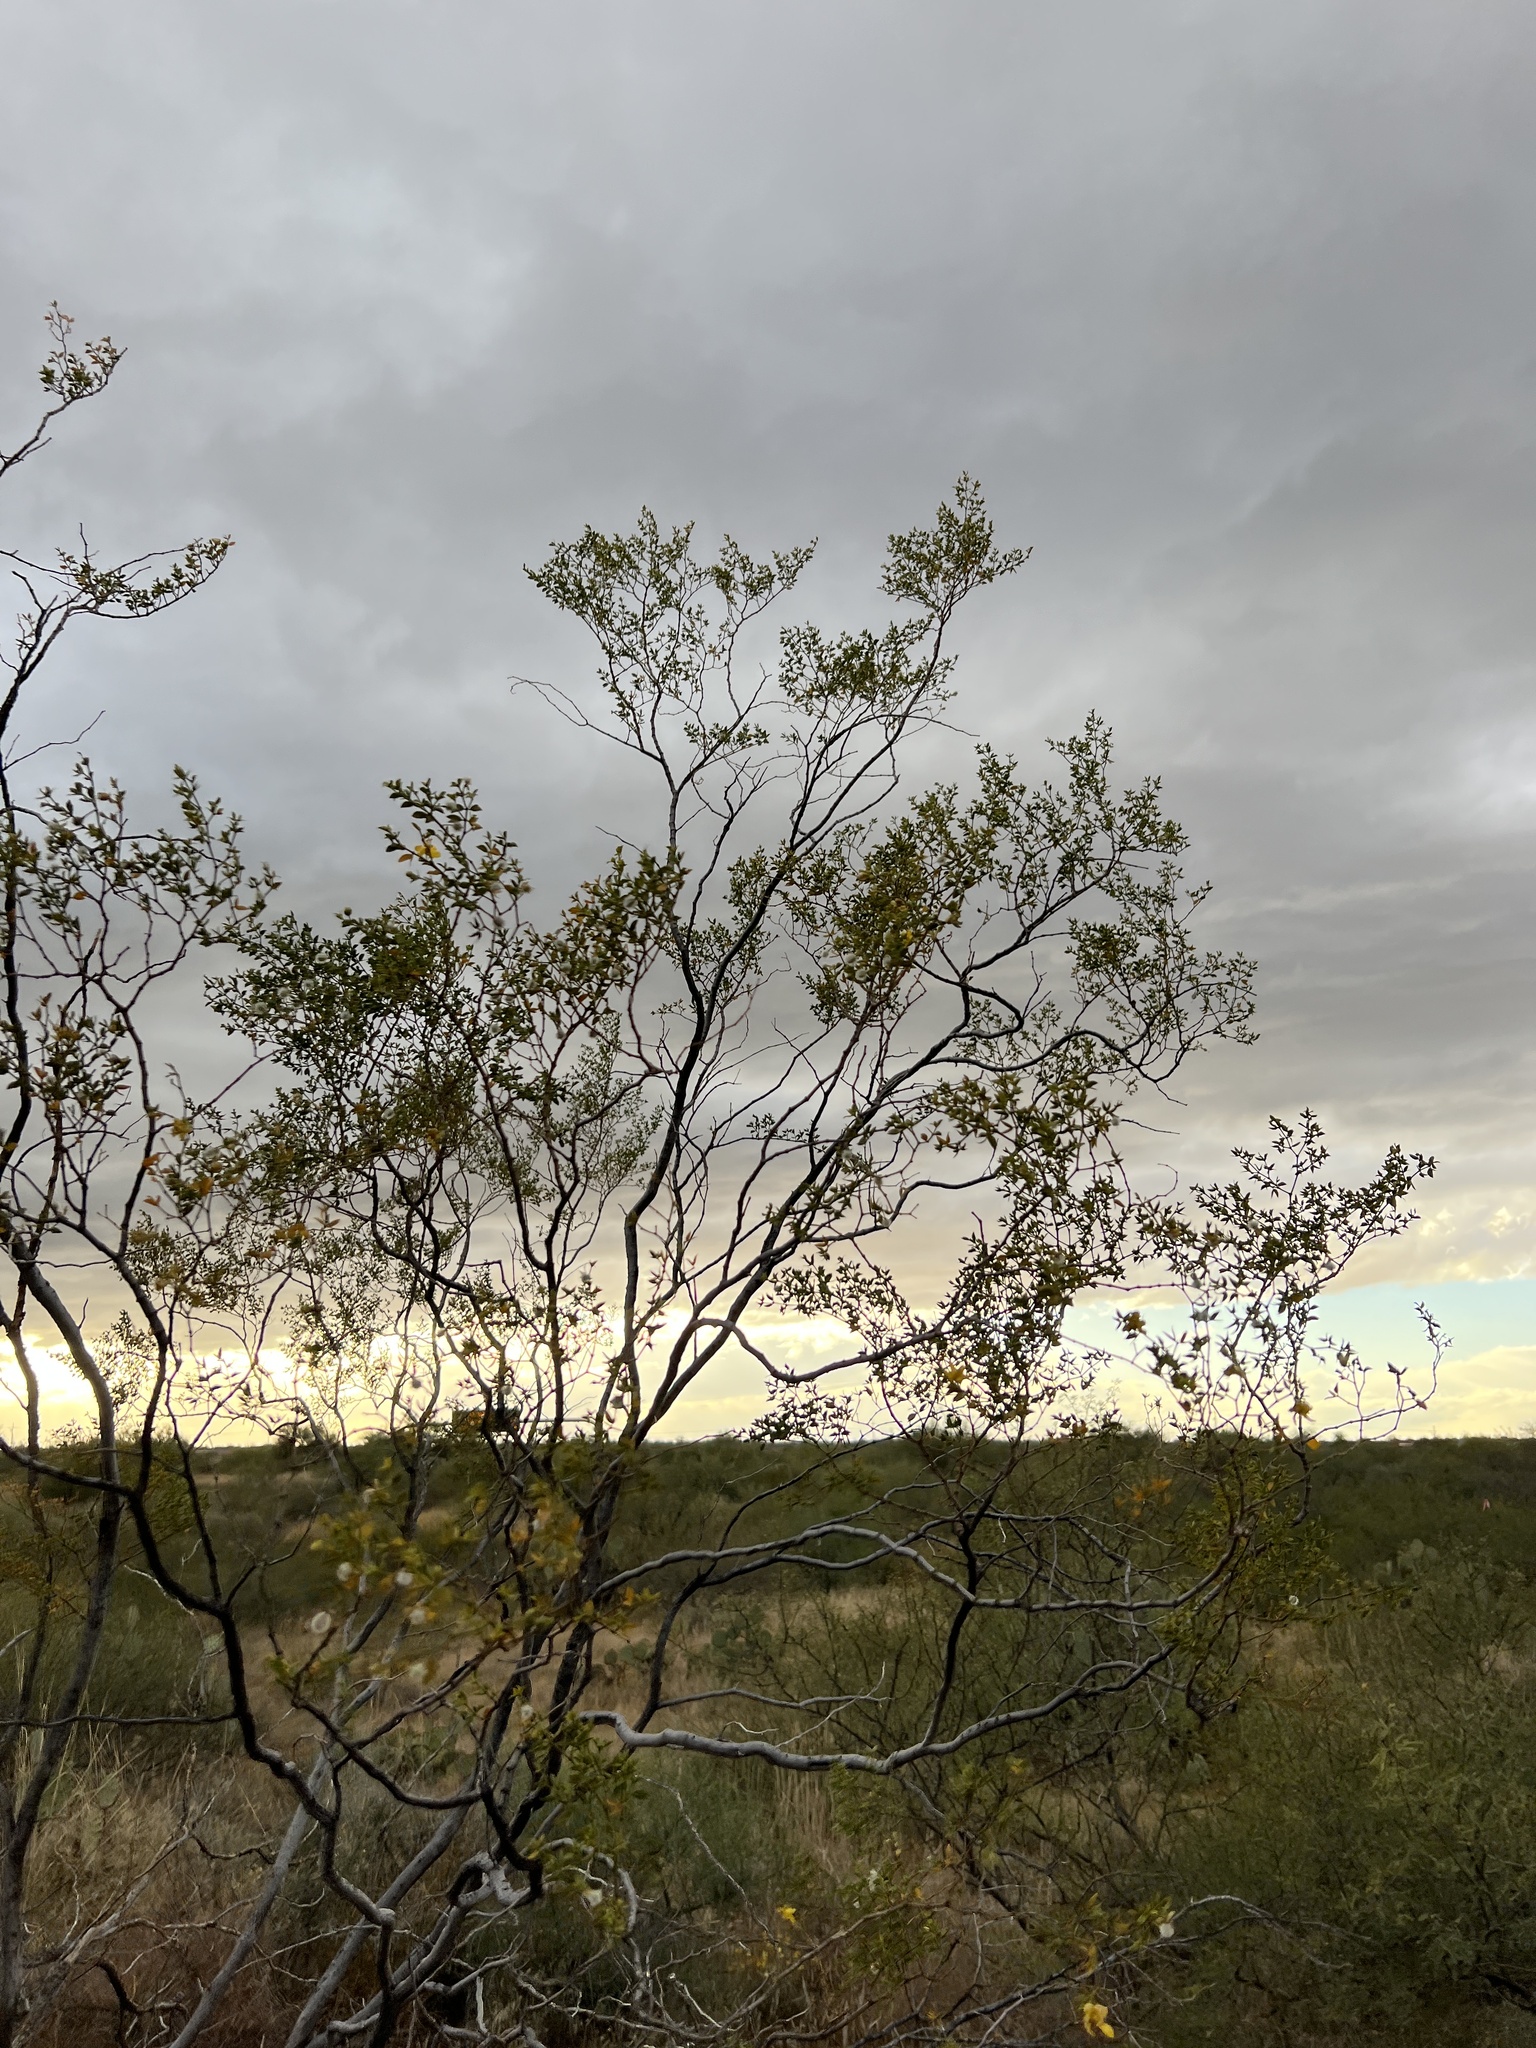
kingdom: Plantae
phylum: Tracheophyta
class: Magnoliopsida
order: Zygophyllales
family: Zygophyllaceae
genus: Larrea
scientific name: Larrea tridentata
